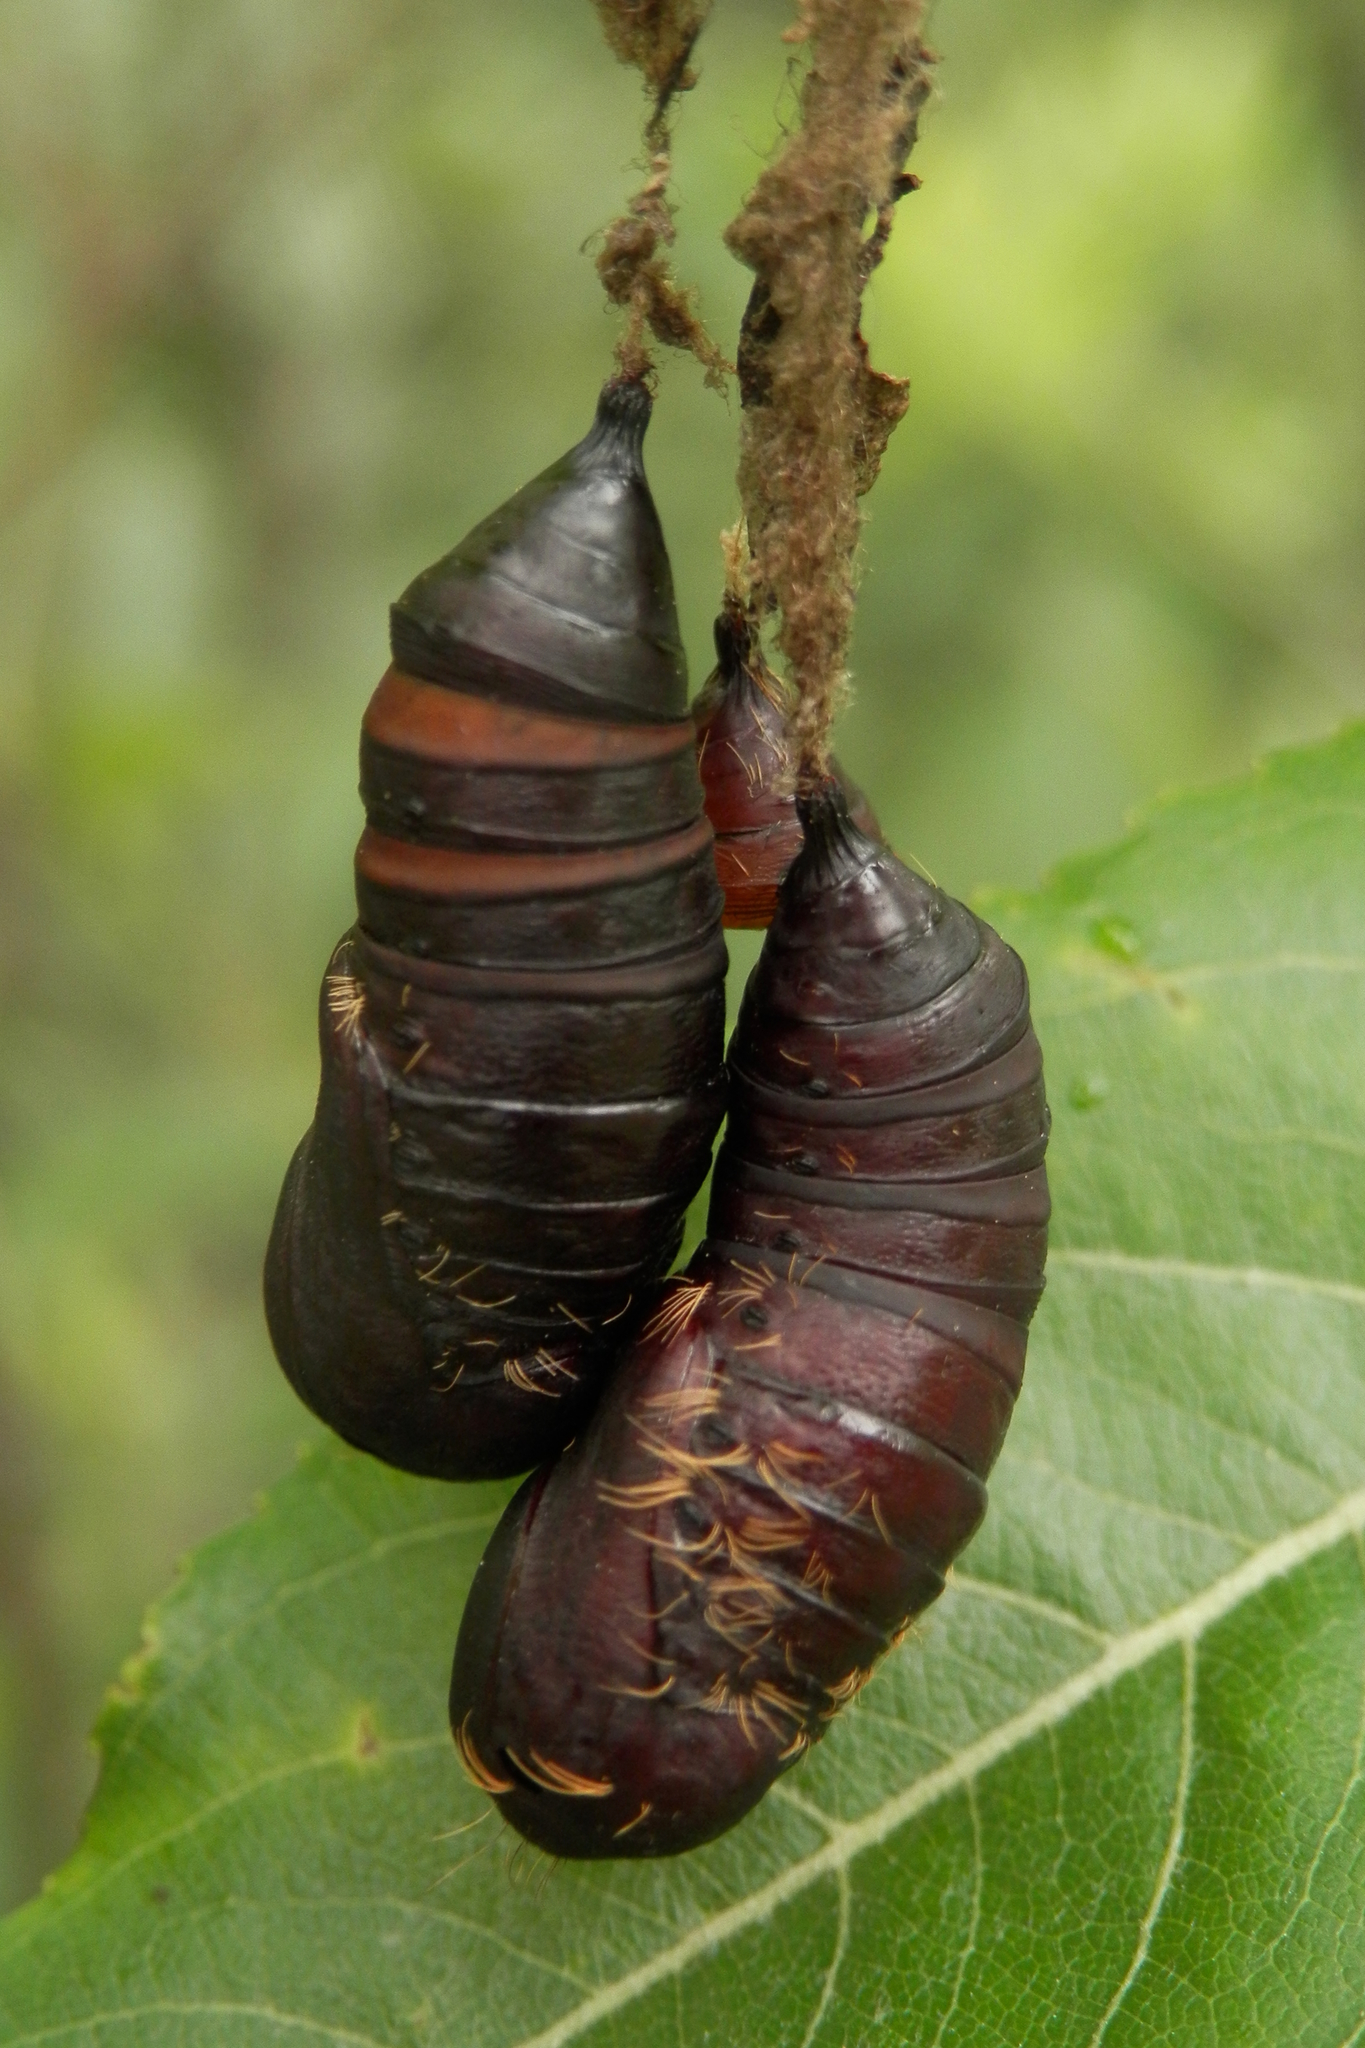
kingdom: Animalia
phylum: Arthropoda
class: Insecta
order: Lepidoptera
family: Erebidae
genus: Lymantria
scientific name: Lymantria dispar
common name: Gypsy moth
